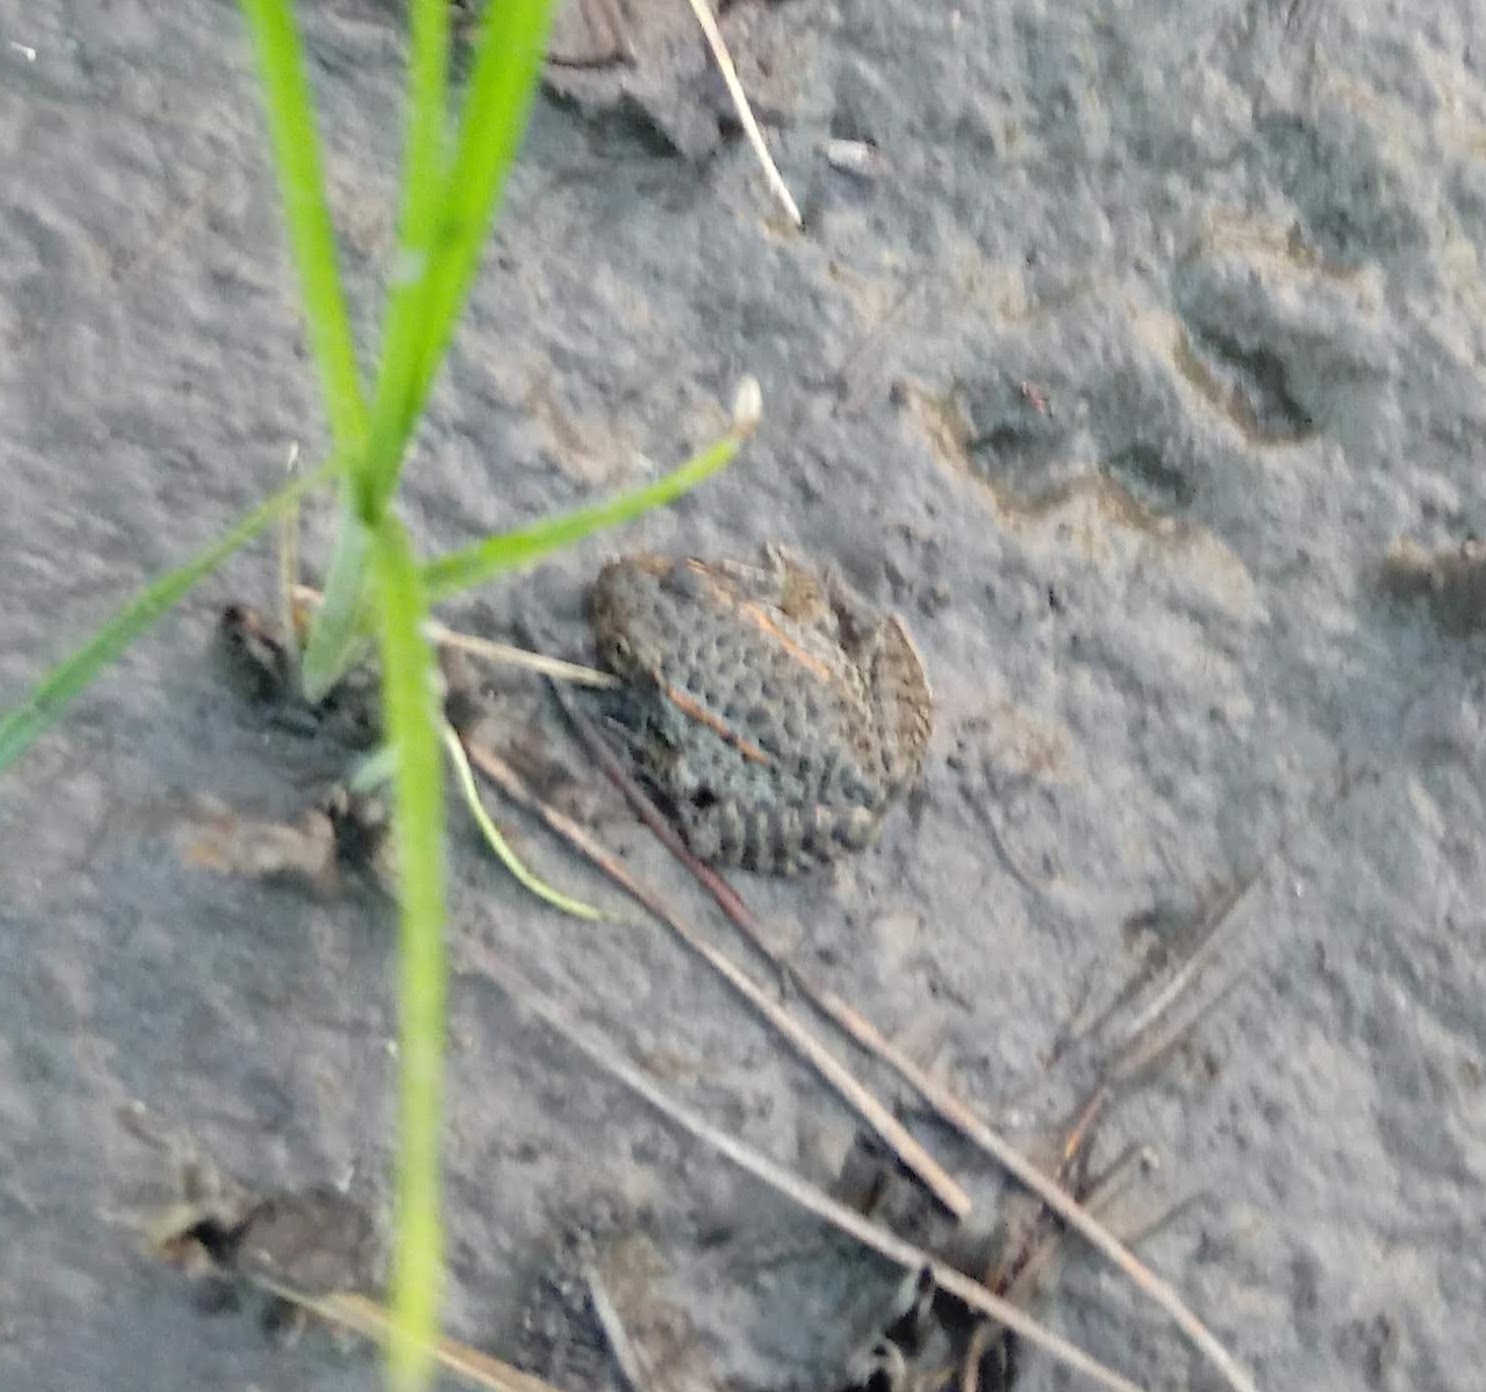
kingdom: Animalia
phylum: Chordata
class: Amphibia
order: Anura
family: Ranidae
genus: Lithobates
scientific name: Lithobates sevosus
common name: Dusky gopher frog
